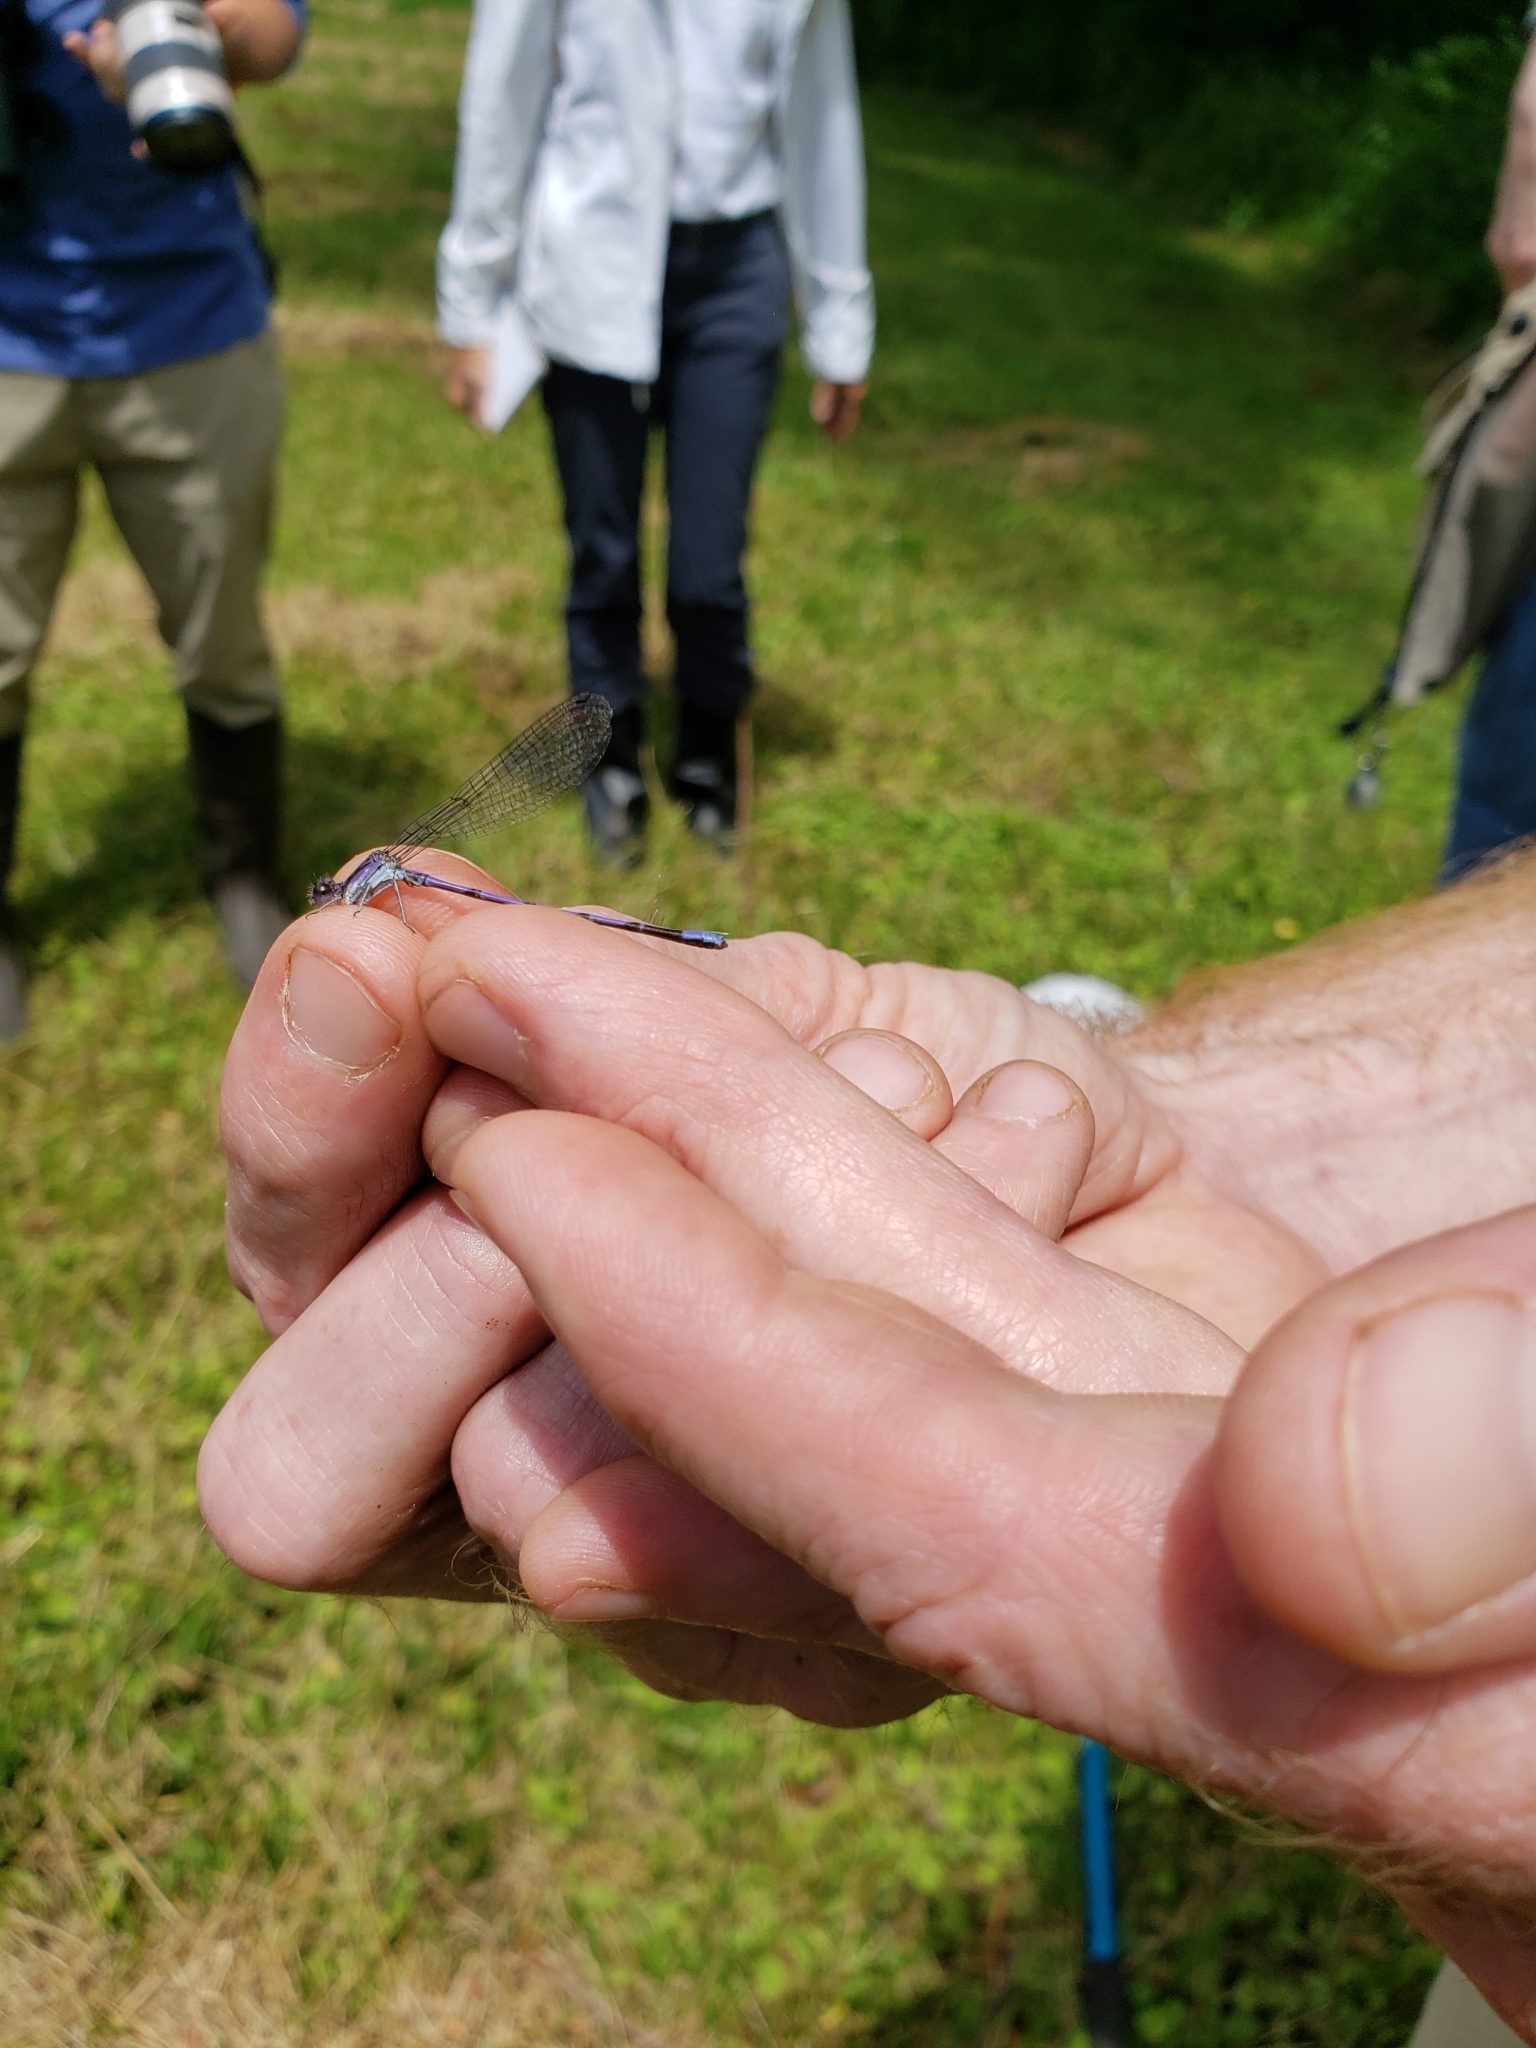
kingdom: Animalia
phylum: Arthropoda
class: Insecta
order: Odonata
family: Coenagrionidae
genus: Argia
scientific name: Argia fumipennis
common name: Variable dancer
